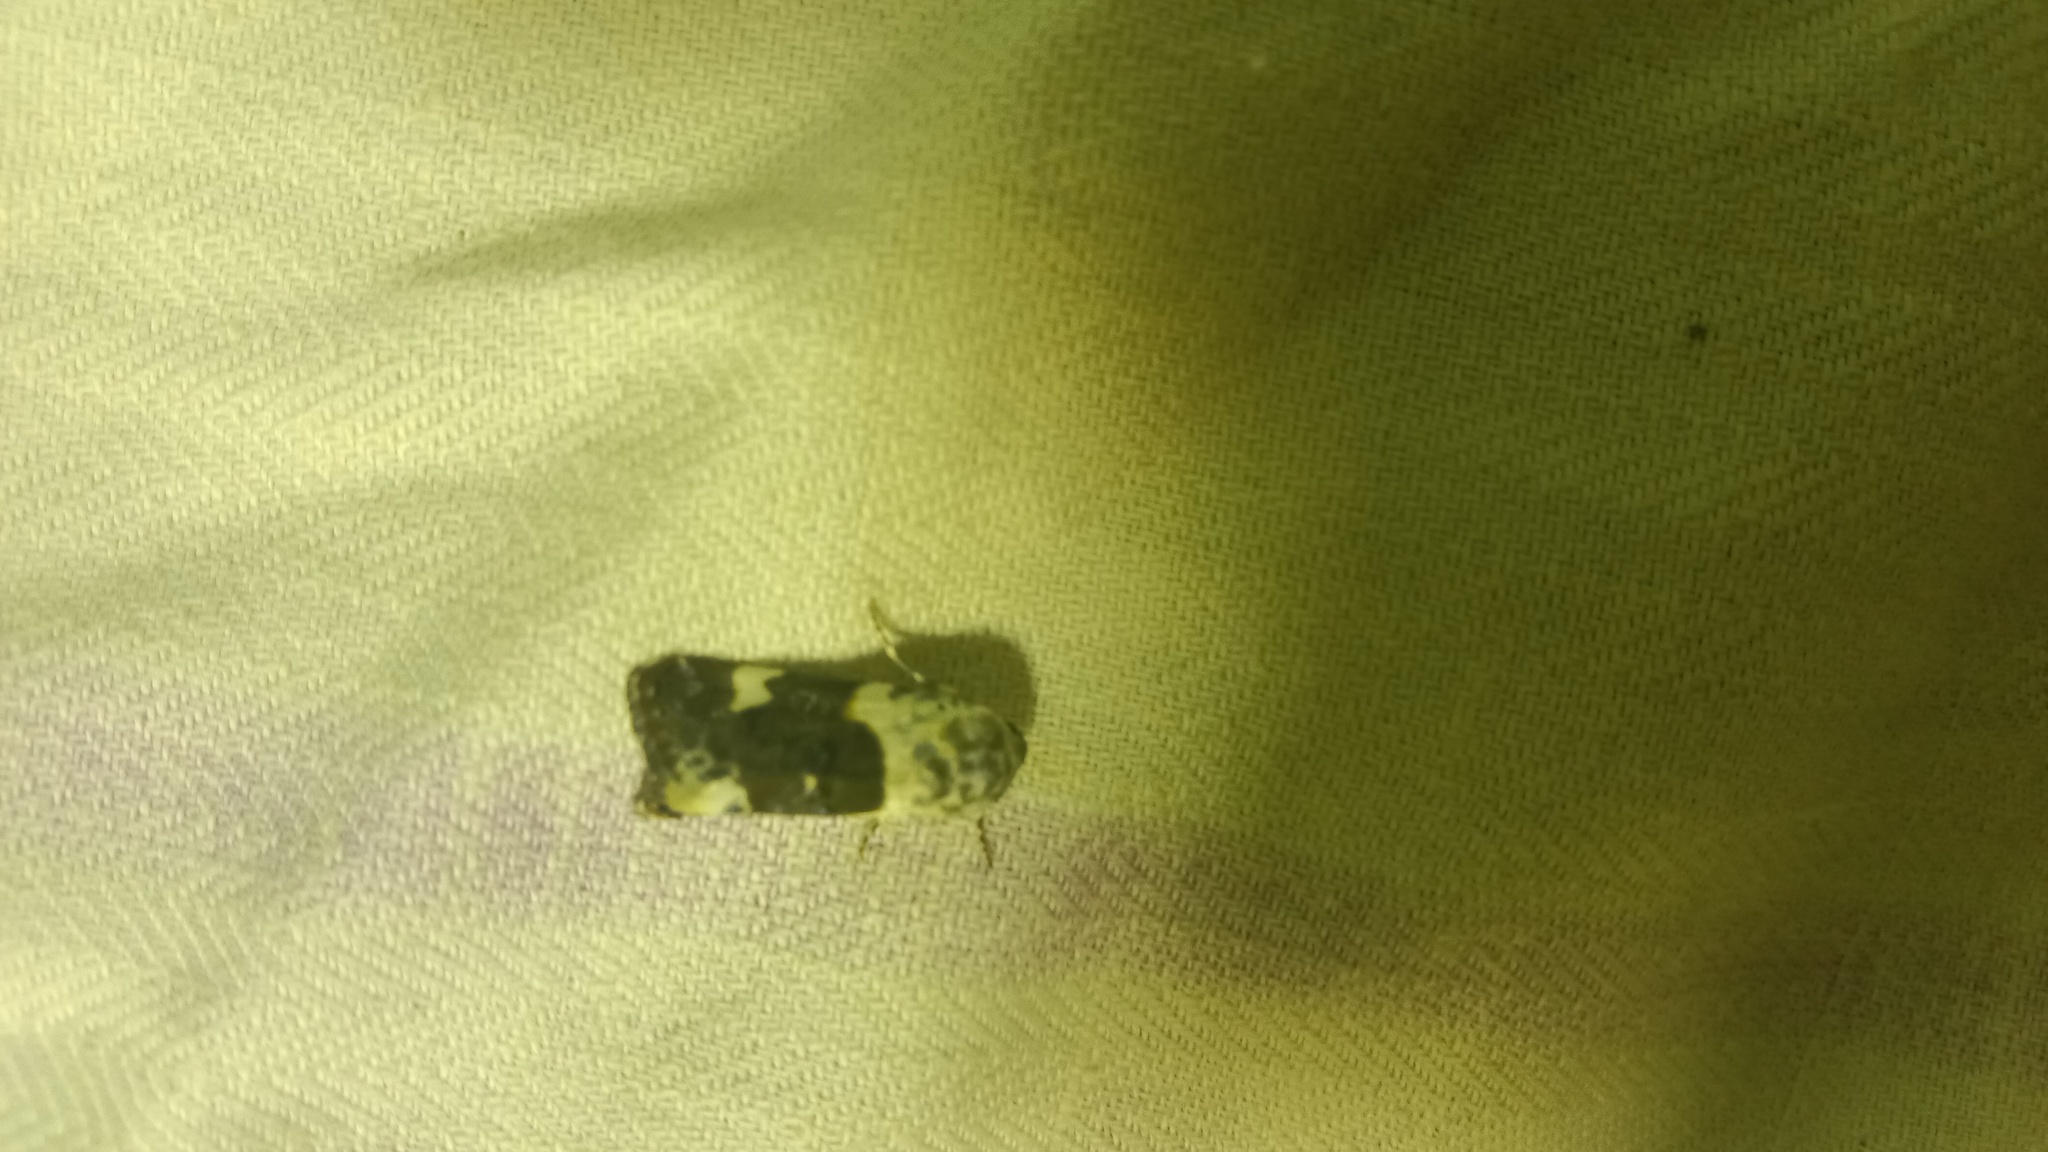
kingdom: Animalia
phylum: Arthropoda
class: Insecta
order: Lepidoptera
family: Noctuidae
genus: Acontia
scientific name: Acontia lucida
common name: Pale shoulder
